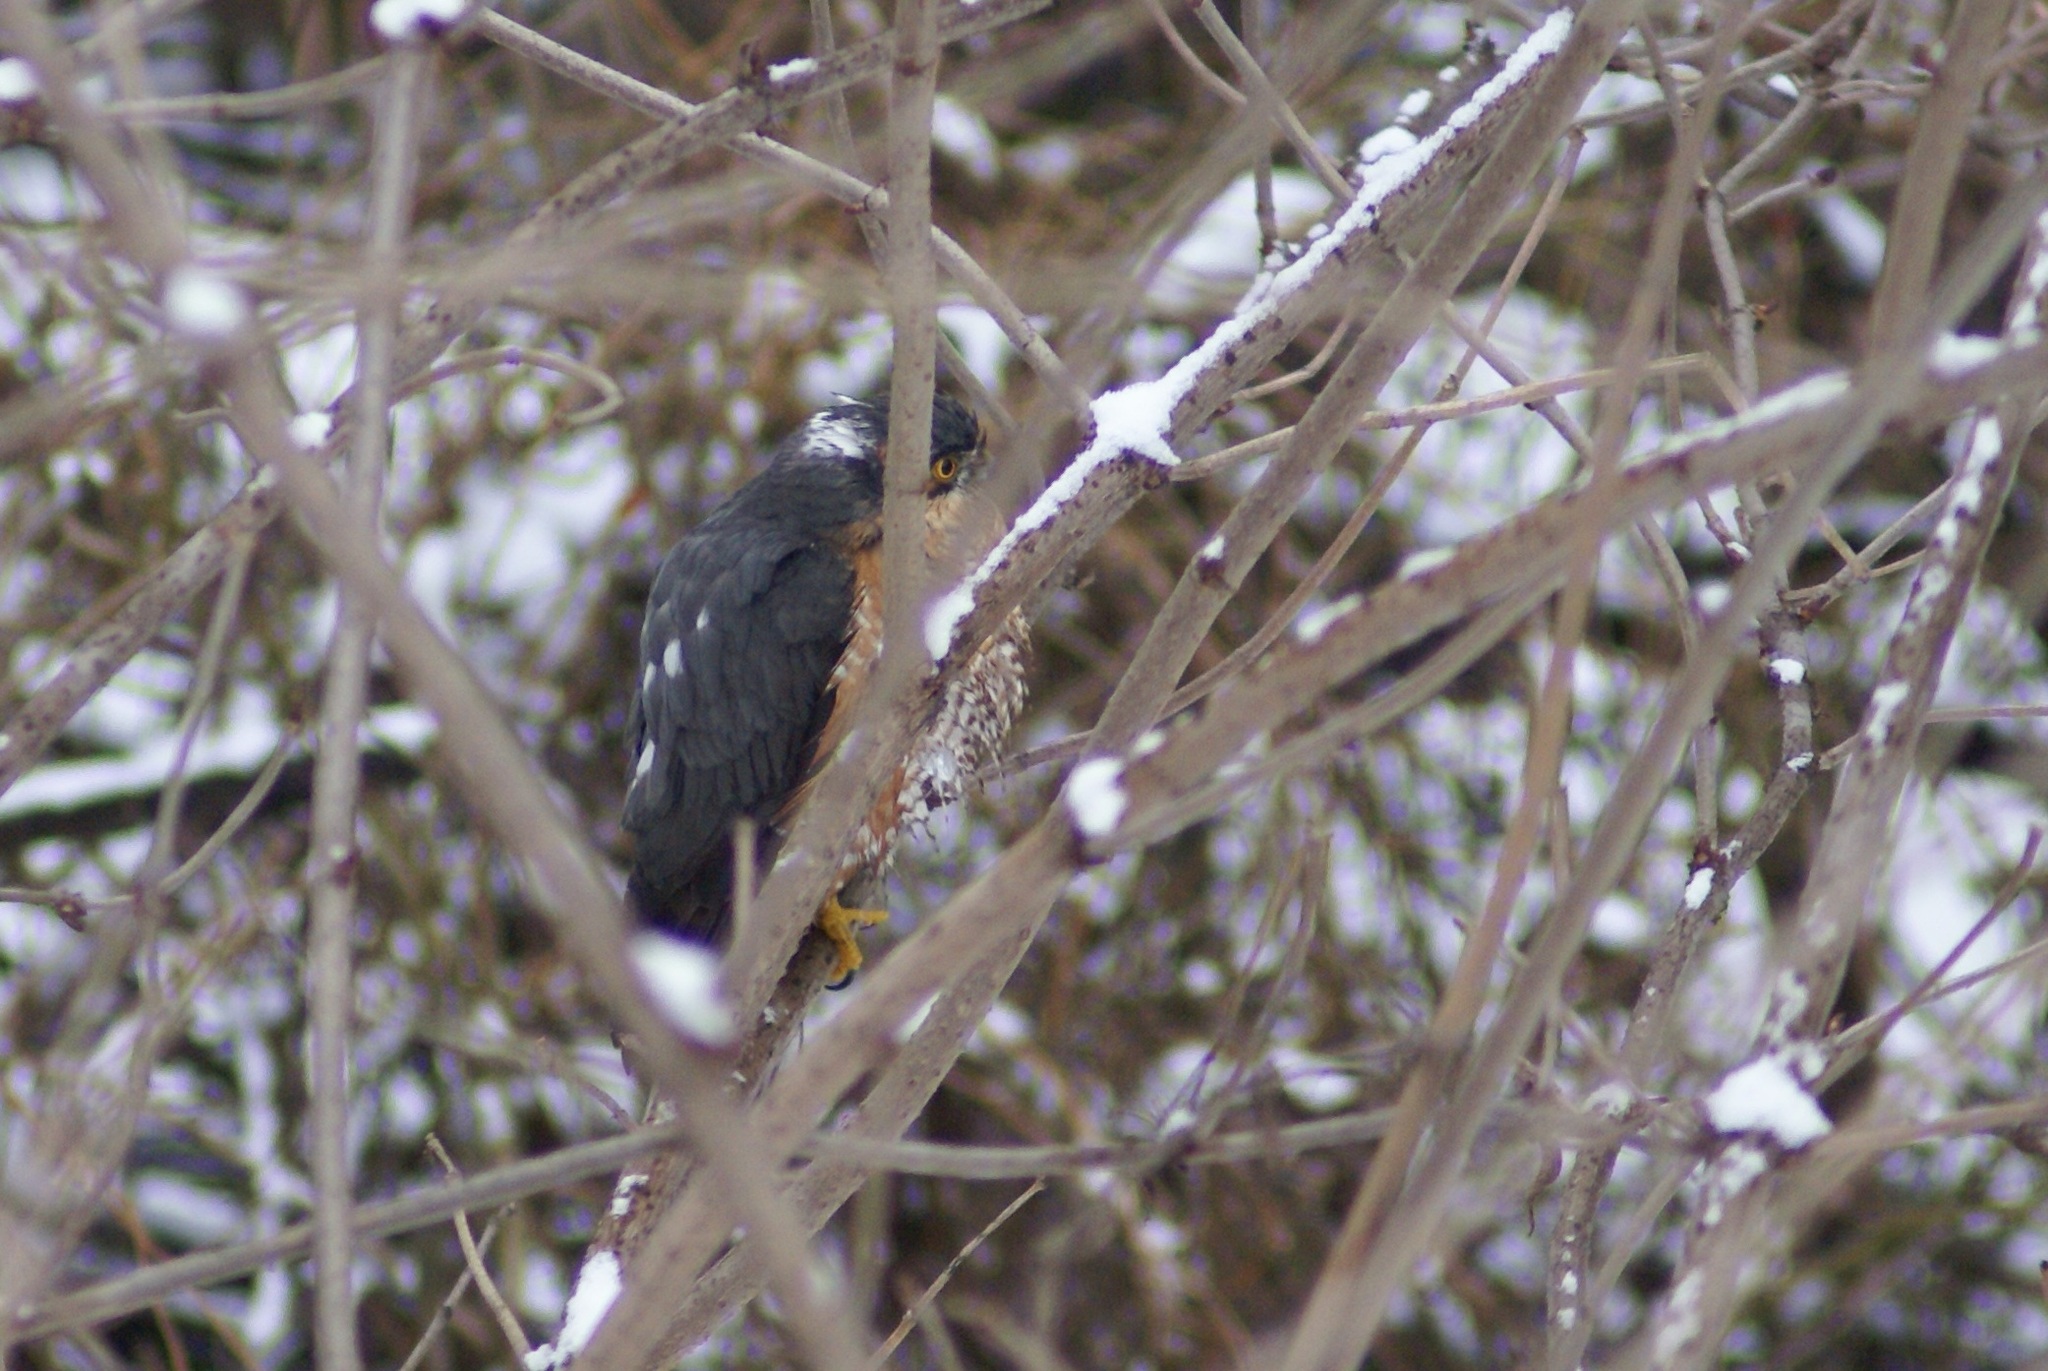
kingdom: Animalia
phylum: Chordata
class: Aves
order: Accipitriformes
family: Accipitridae
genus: Accipiter
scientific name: Accipiter nisus
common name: Eurasian sparrowhawk
